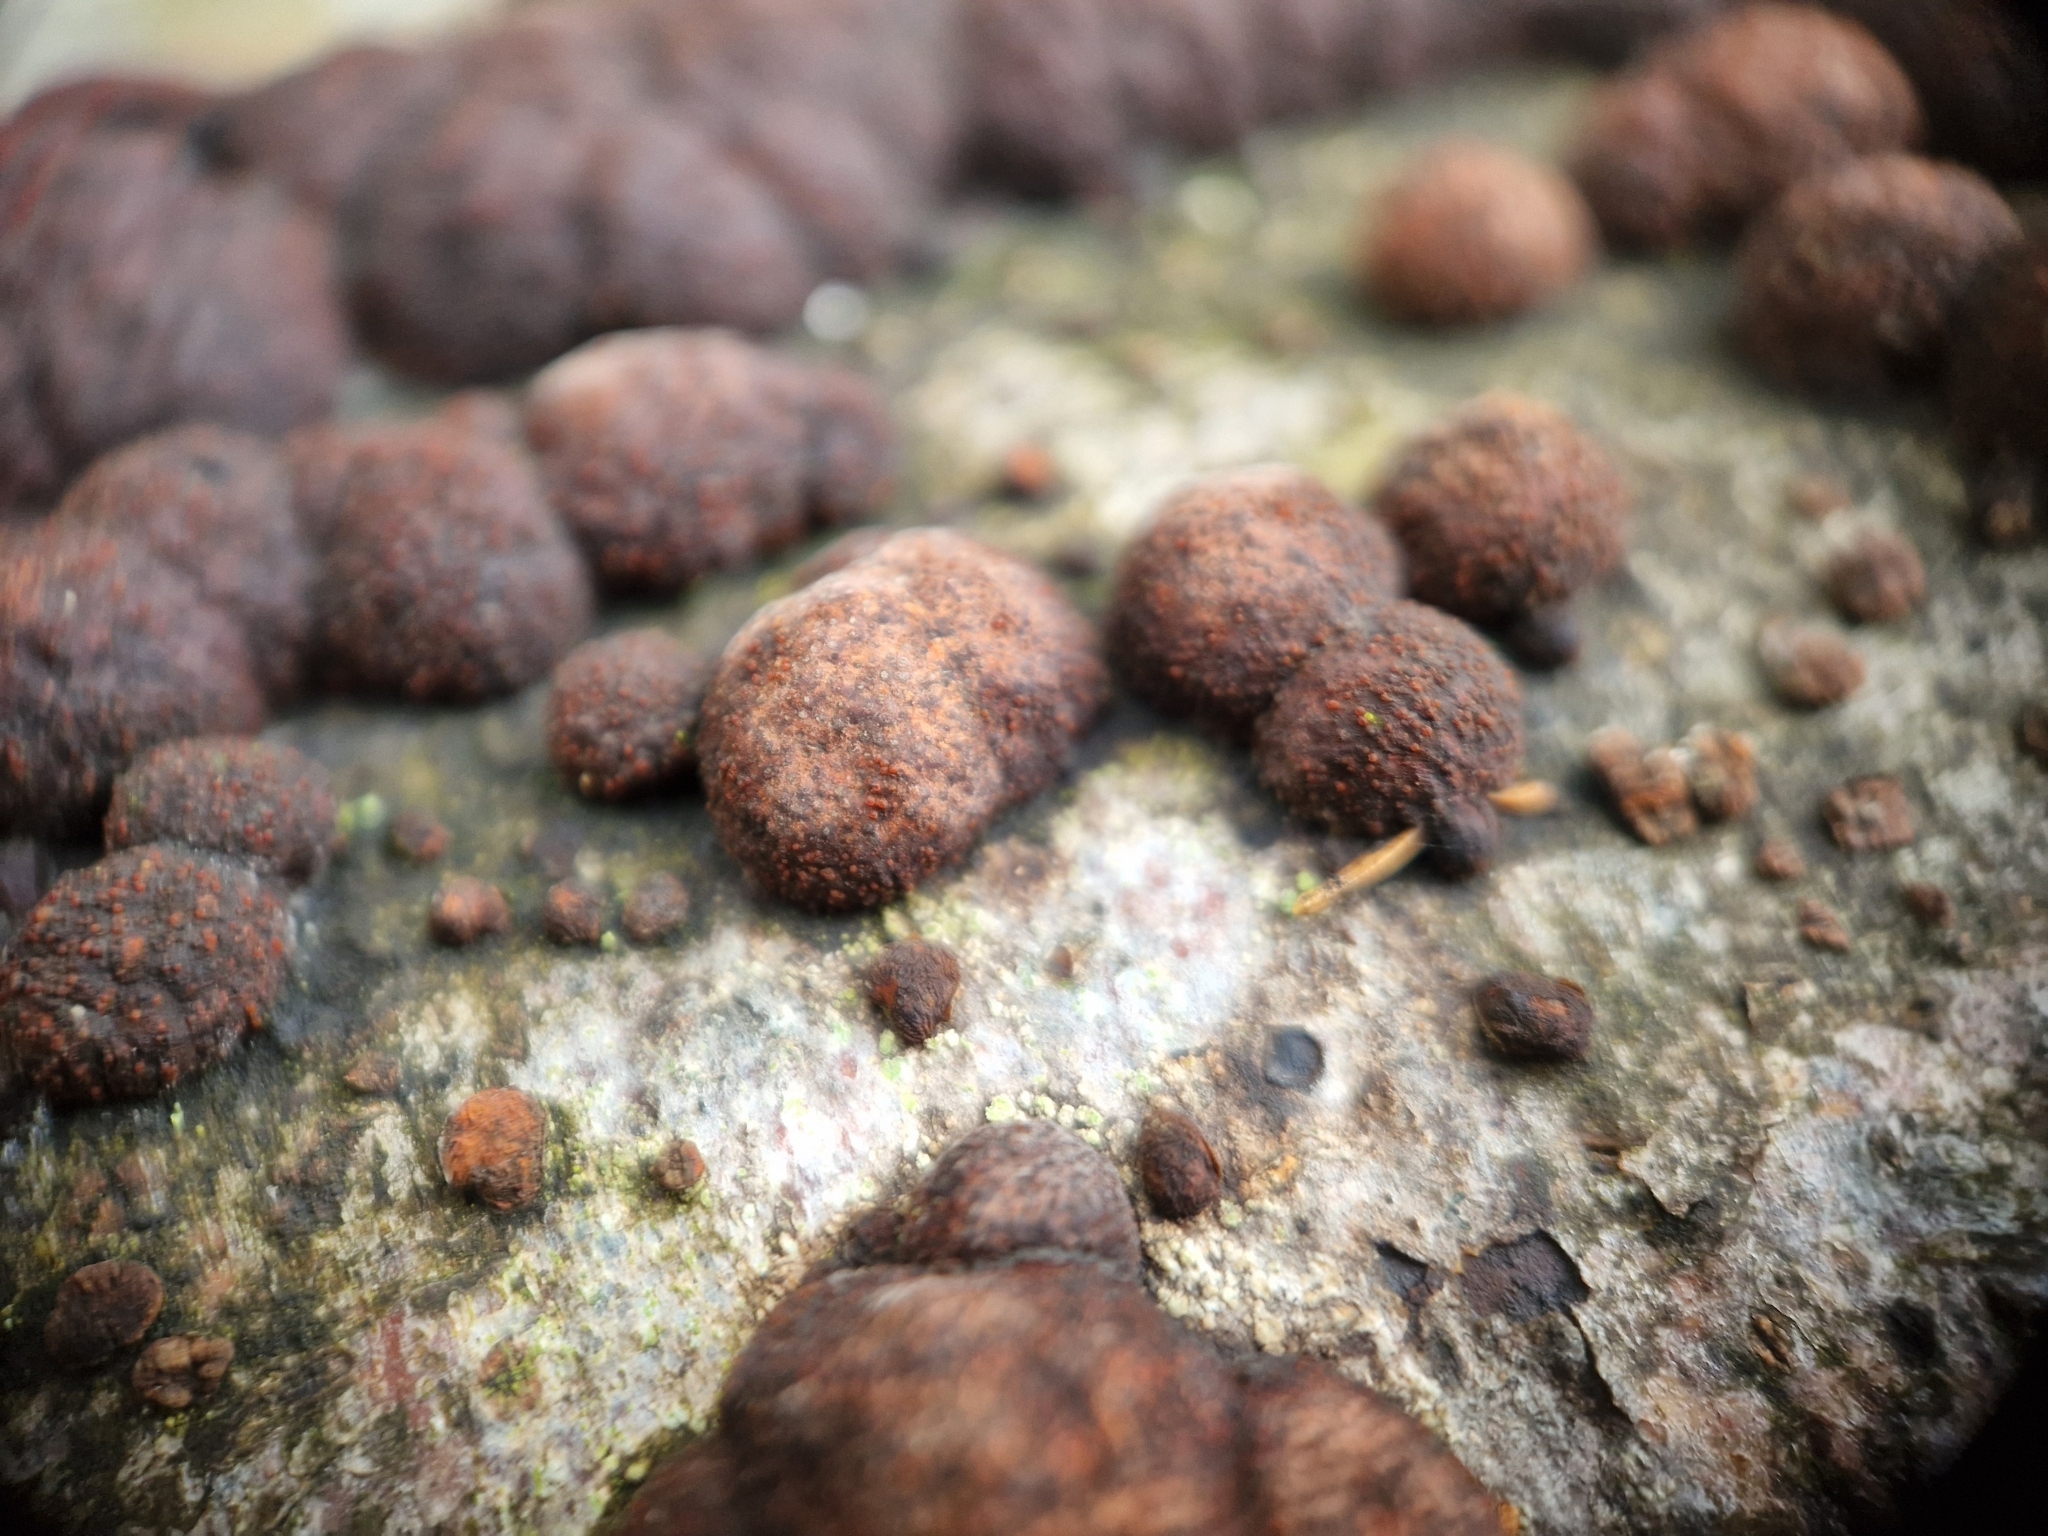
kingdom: Fungi
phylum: Ascomycota
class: Sordariomycetes
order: Xylariales
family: Hypoxylaceae
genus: Hypoxylon
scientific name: Hypoxylon fragiforme
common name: Beech woodwart
